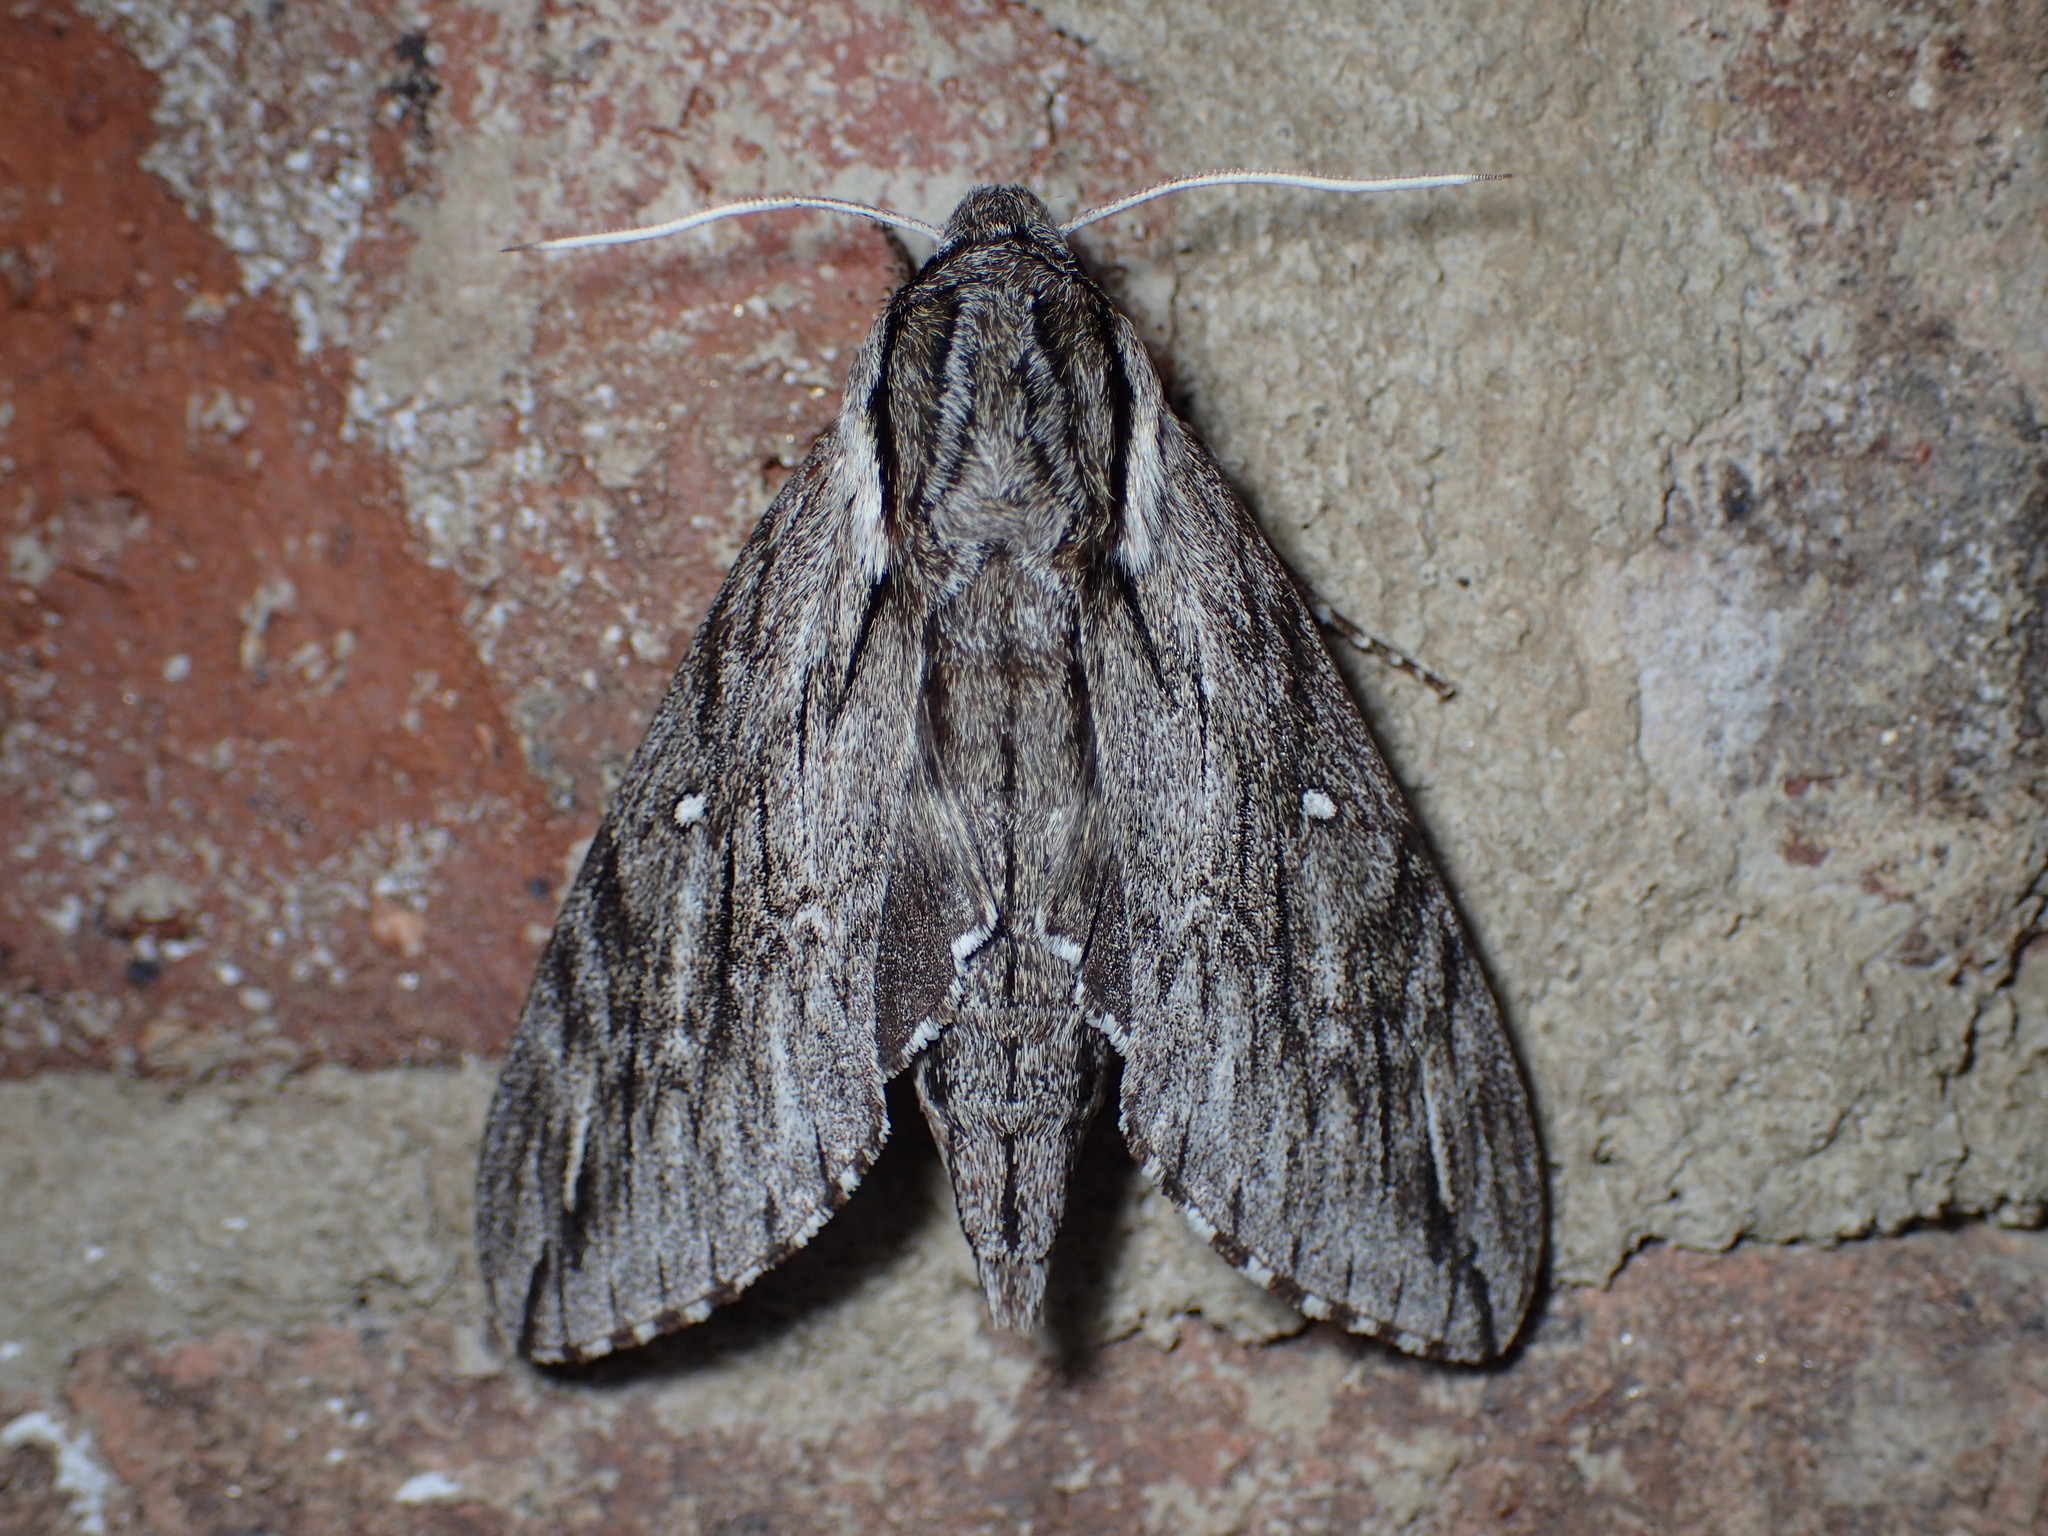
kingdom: Animalia
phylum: Arthropoda
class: Insecta
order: Lepidoptera
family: Sphingidae
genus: Paratrea
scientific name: Paratrea plebeja
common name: Plebian sphinx
